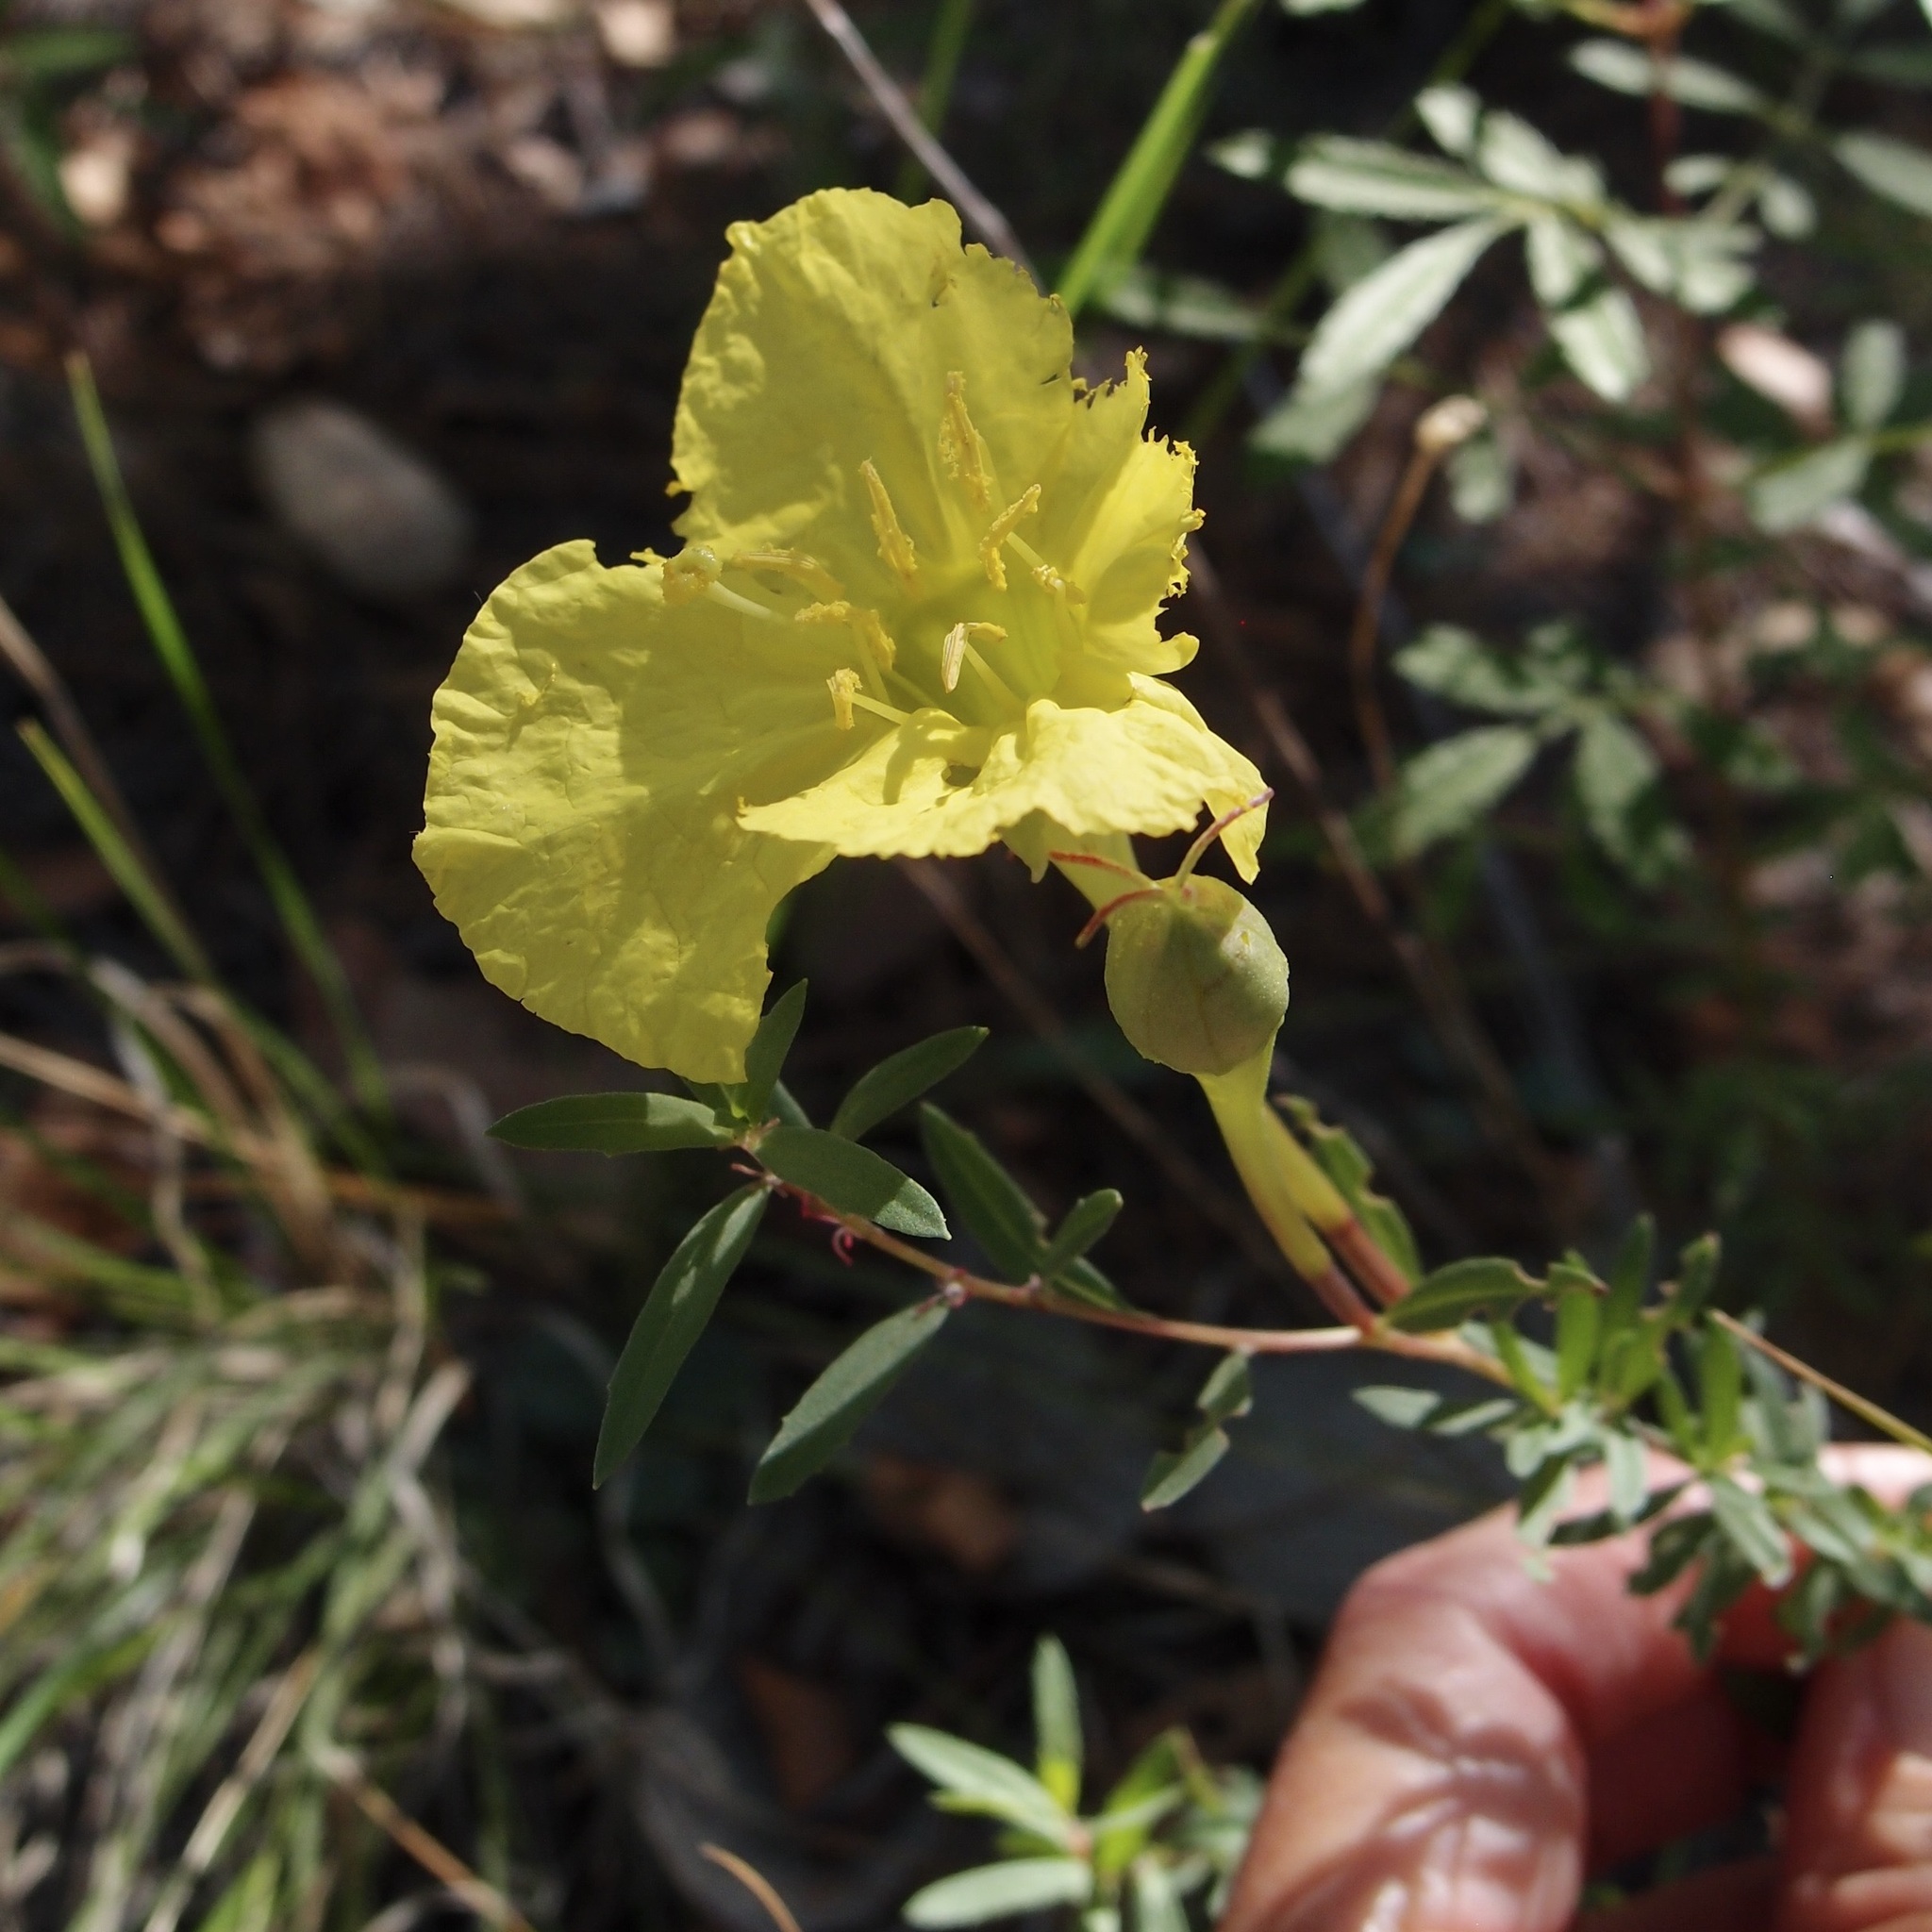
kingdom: Plantae
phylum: Tracheophyta
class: Magnoliopsida
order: Myrtales
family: Onagraceae
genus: Oenothera
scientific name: Oenothera toumeyi
